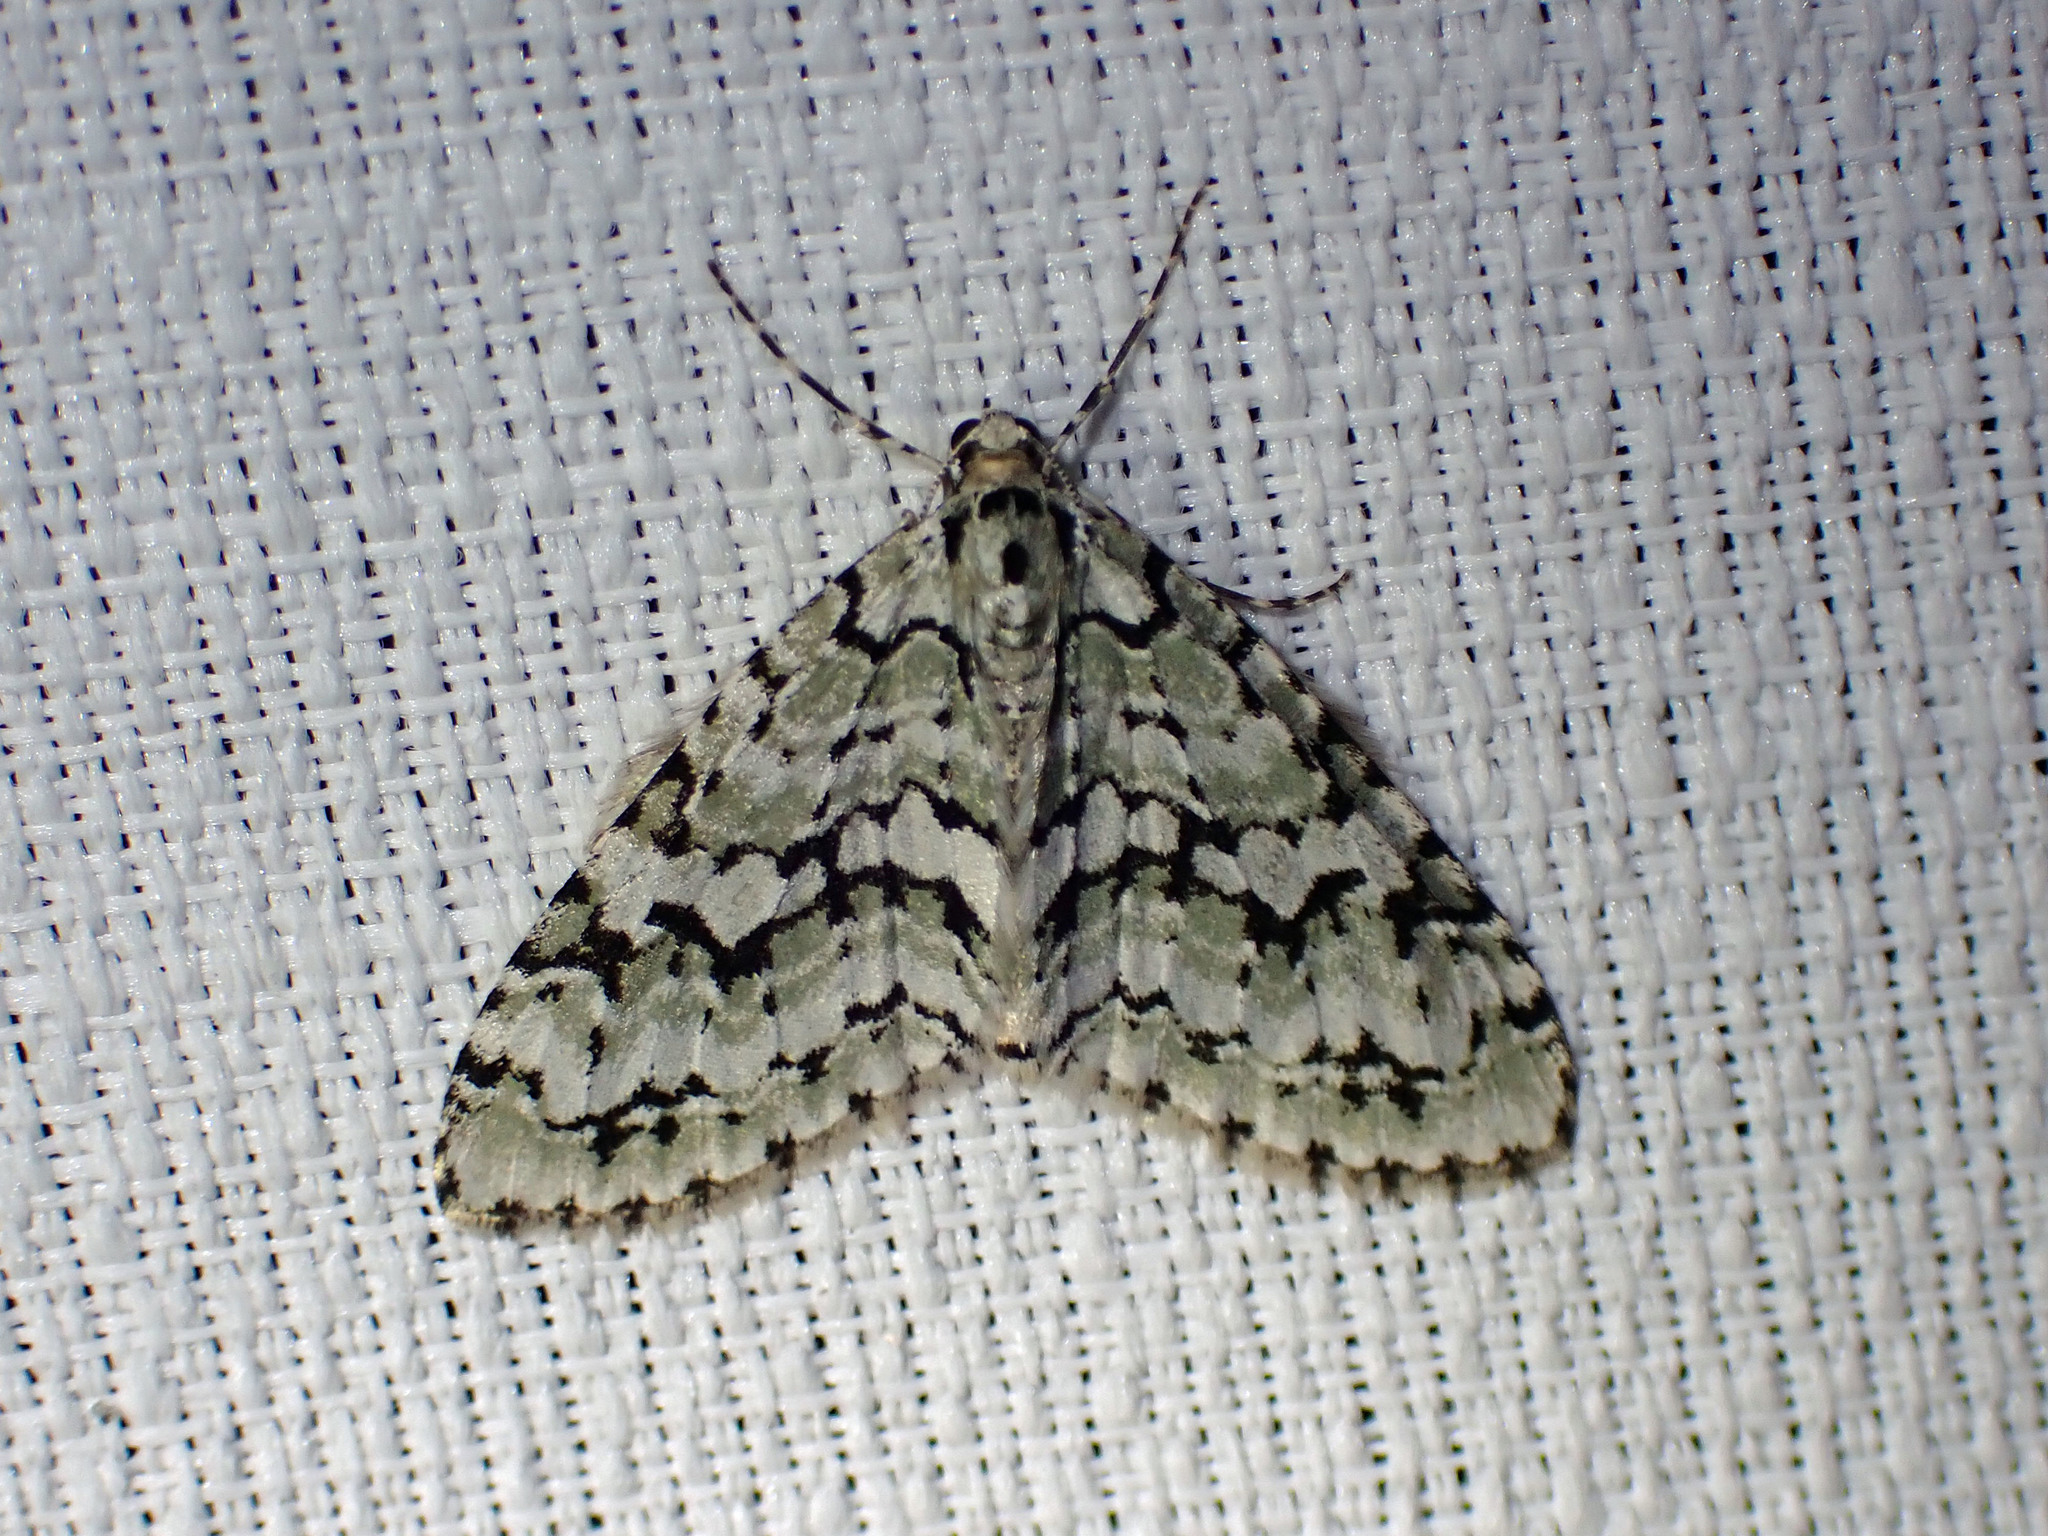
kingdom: Animalia
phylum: Arthropoda
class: Insecta
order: Lepidoptera
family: Geometridae
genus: Cladara
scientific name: Cladara atroliturata
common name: Scribbler
